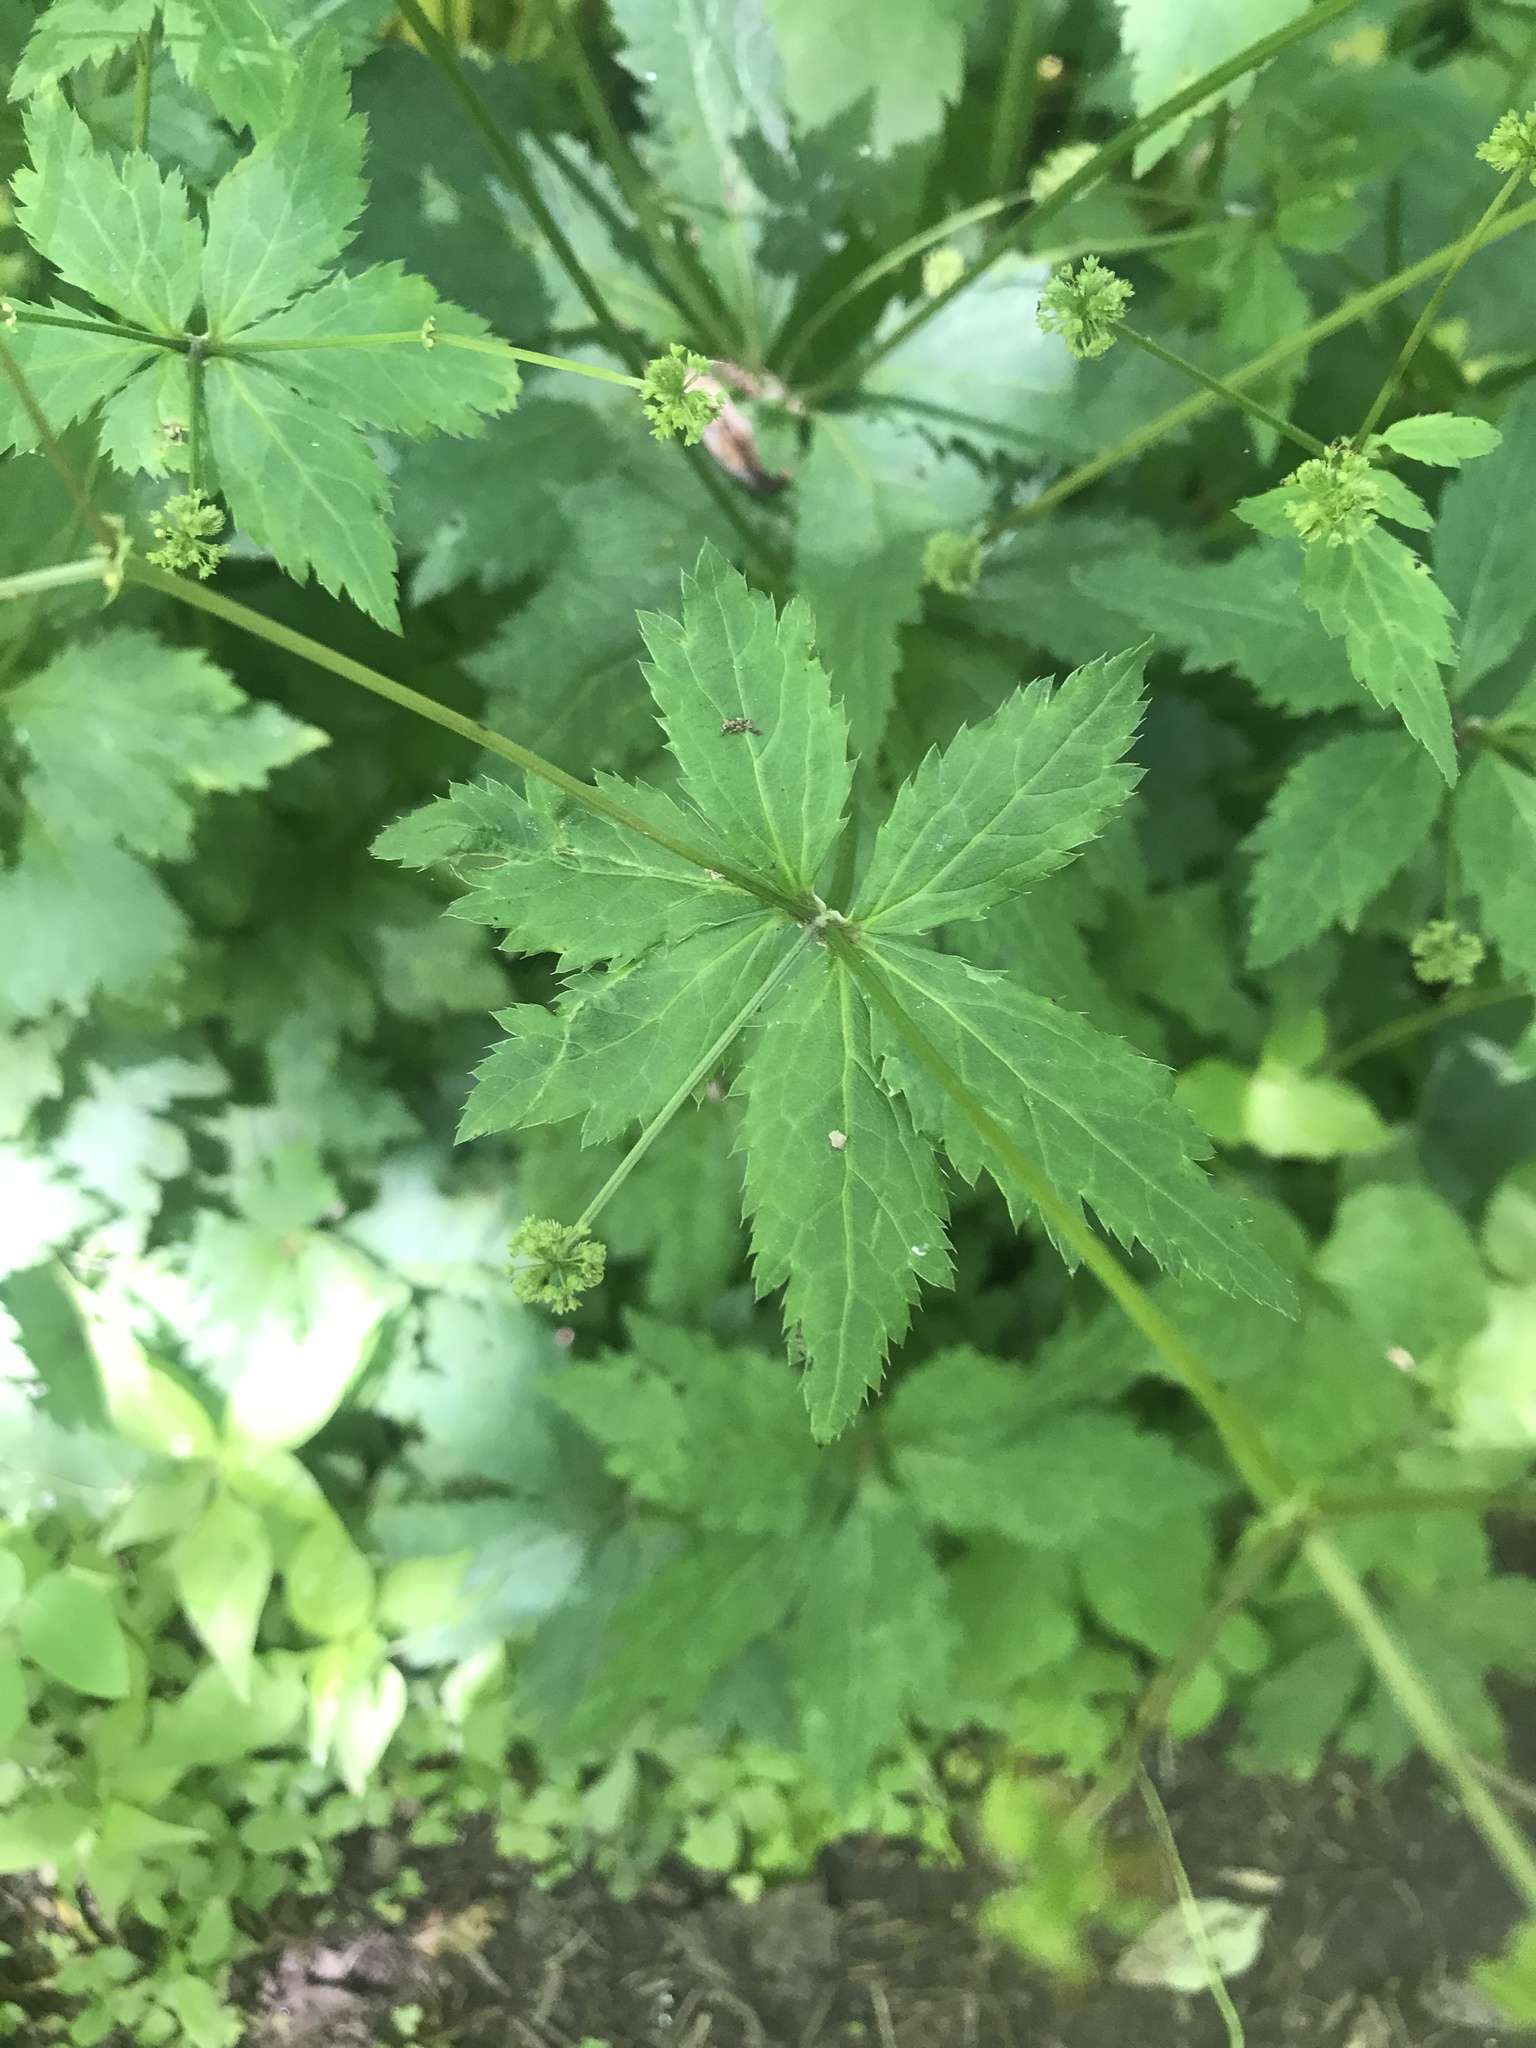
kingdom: Plantae
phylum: Tracheophyta
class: Magnoliopsida
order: Apiales
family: Apiaceae
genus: Sanicula
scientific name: Sanicula odorata
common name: Cluster sanicle
